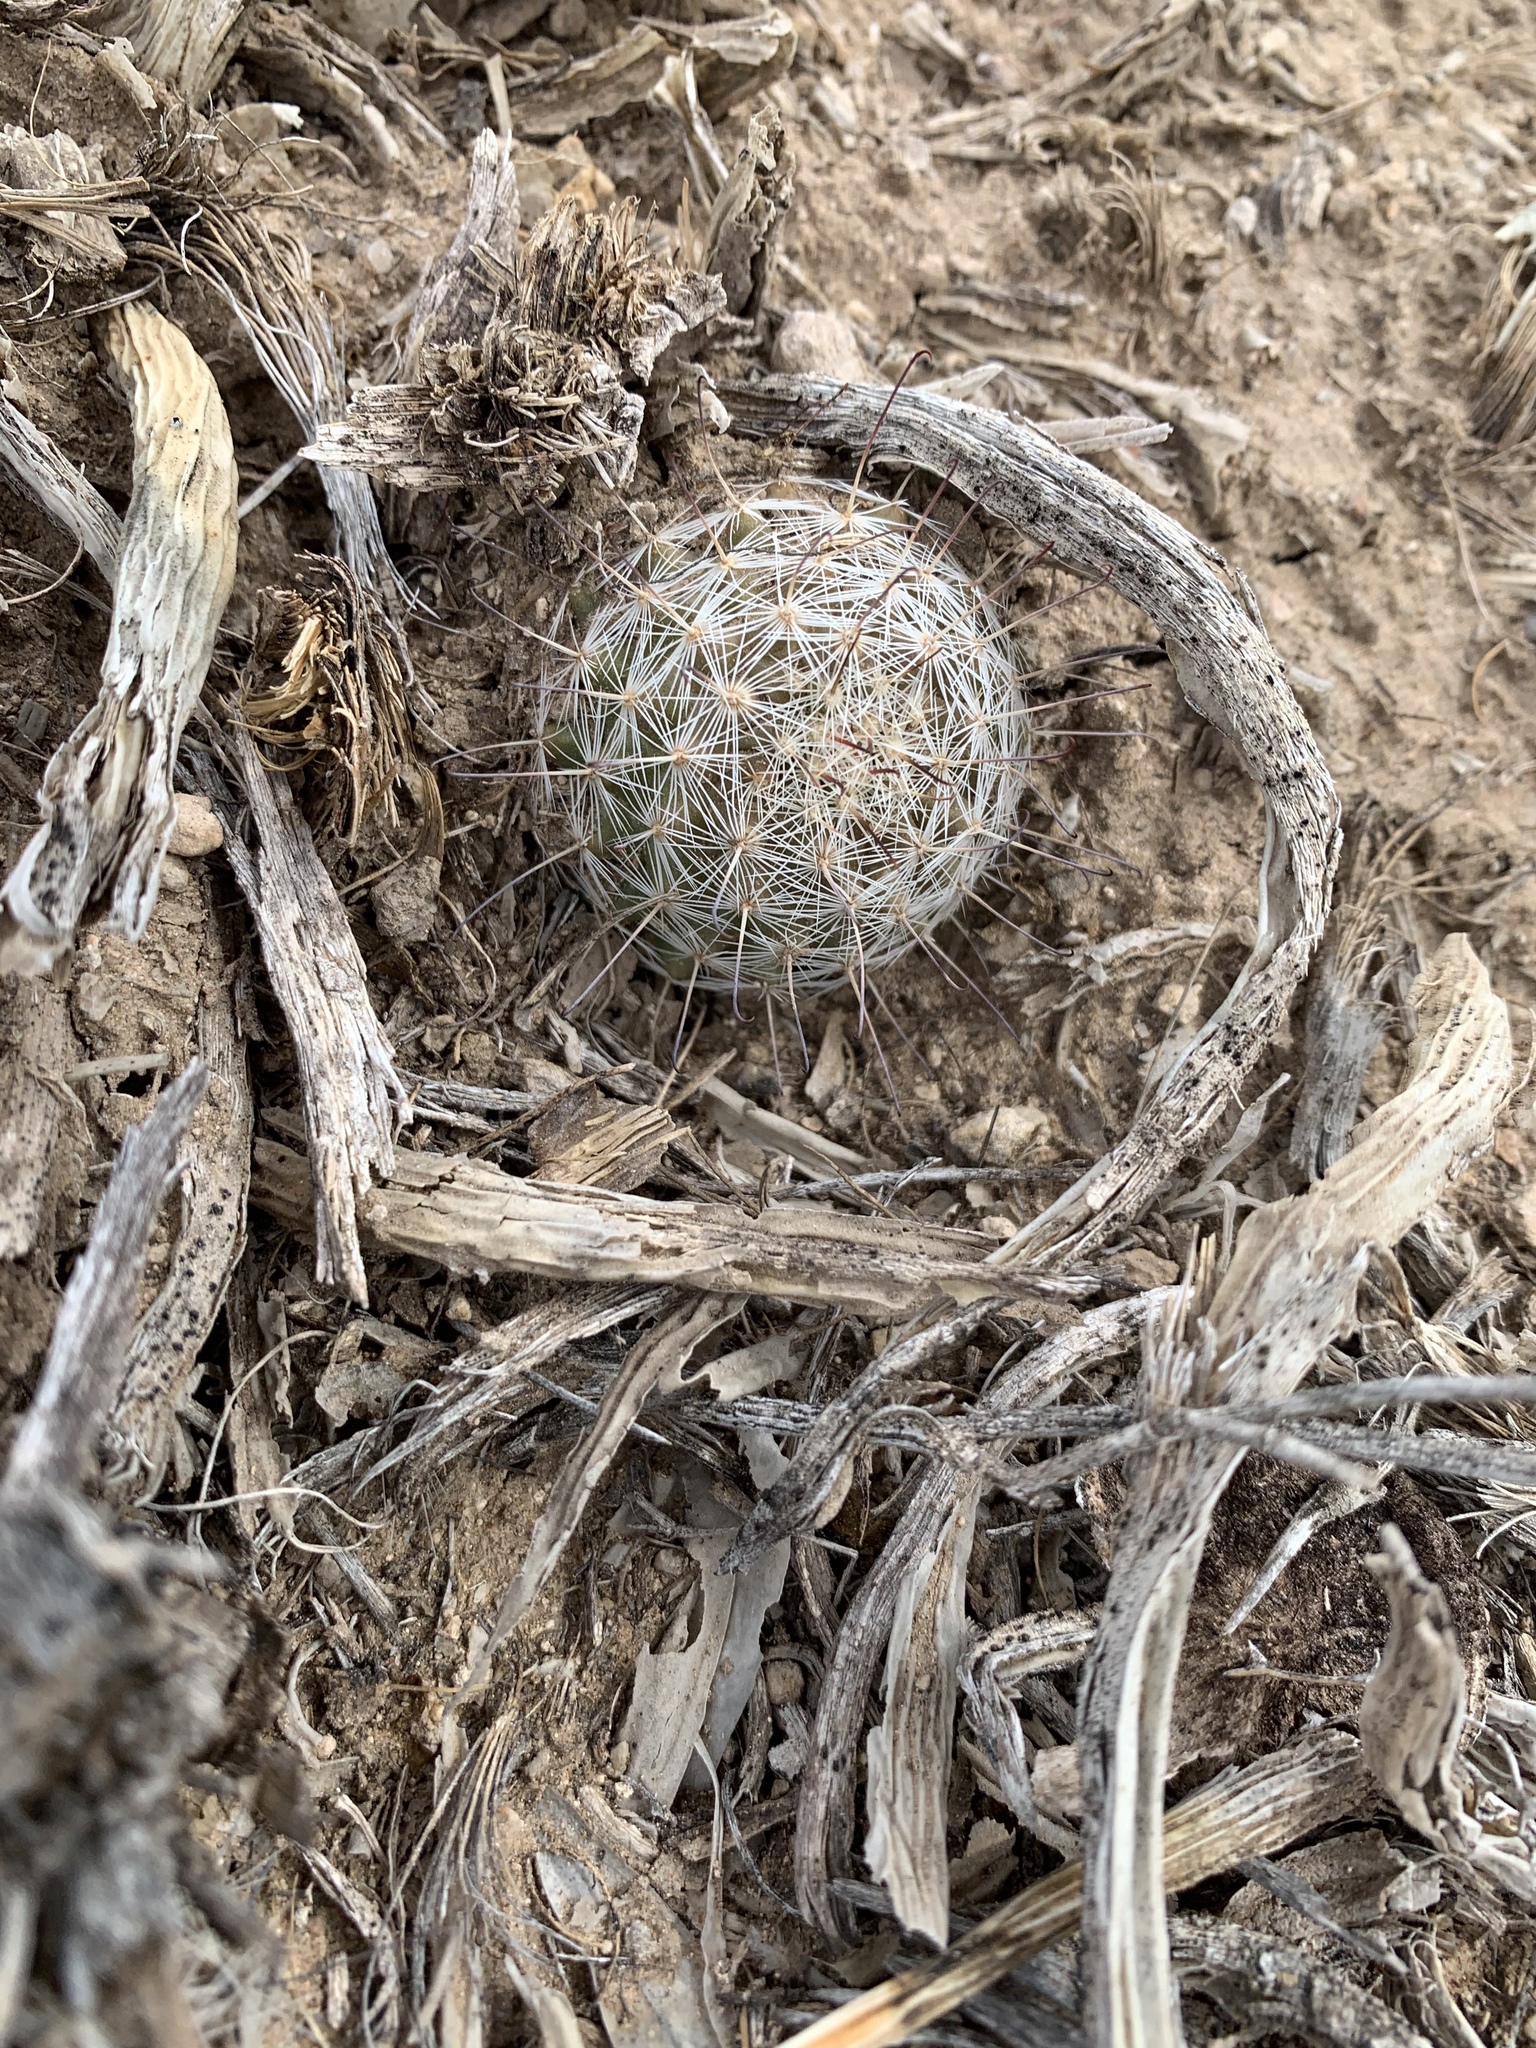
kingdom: Plantae
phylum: Tracheophyta
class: Magnoliopsida
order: Caryophyllales
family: Cactaceae
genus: Cochemiea
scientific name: Cochemiea grahamii
